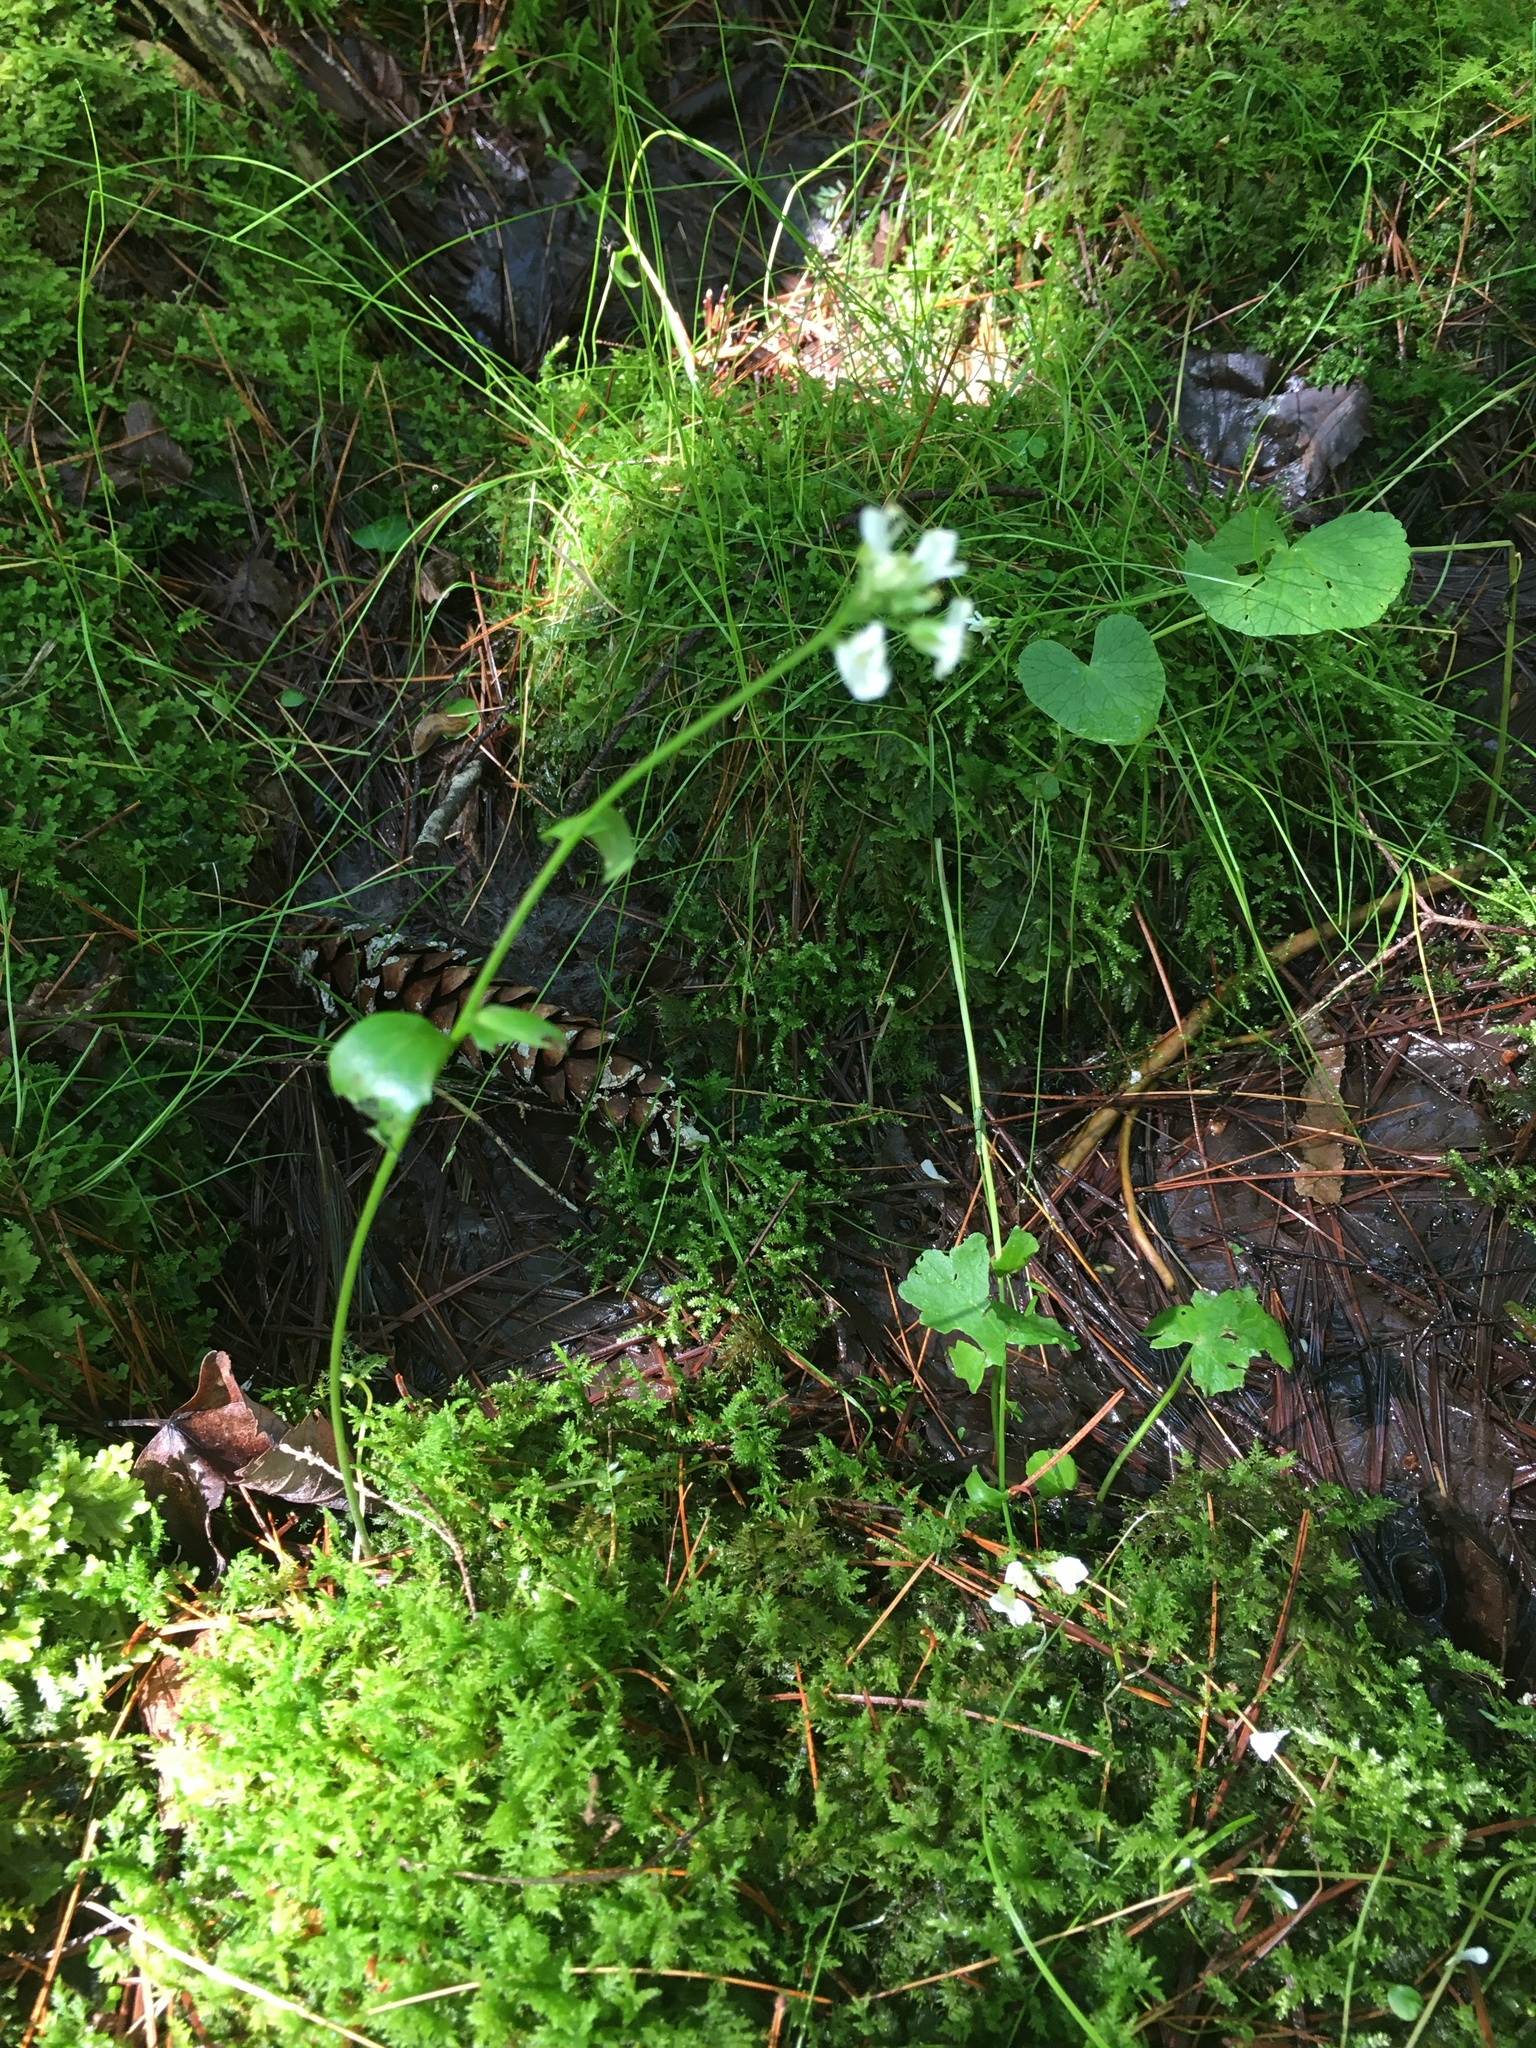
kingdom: Plantae
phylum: Tracheophyta
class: Magnoliopsida
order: Brassicales
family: Brassicaceae
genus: Cardamine
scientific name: Cardamine bulbosa
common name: Spring cress
